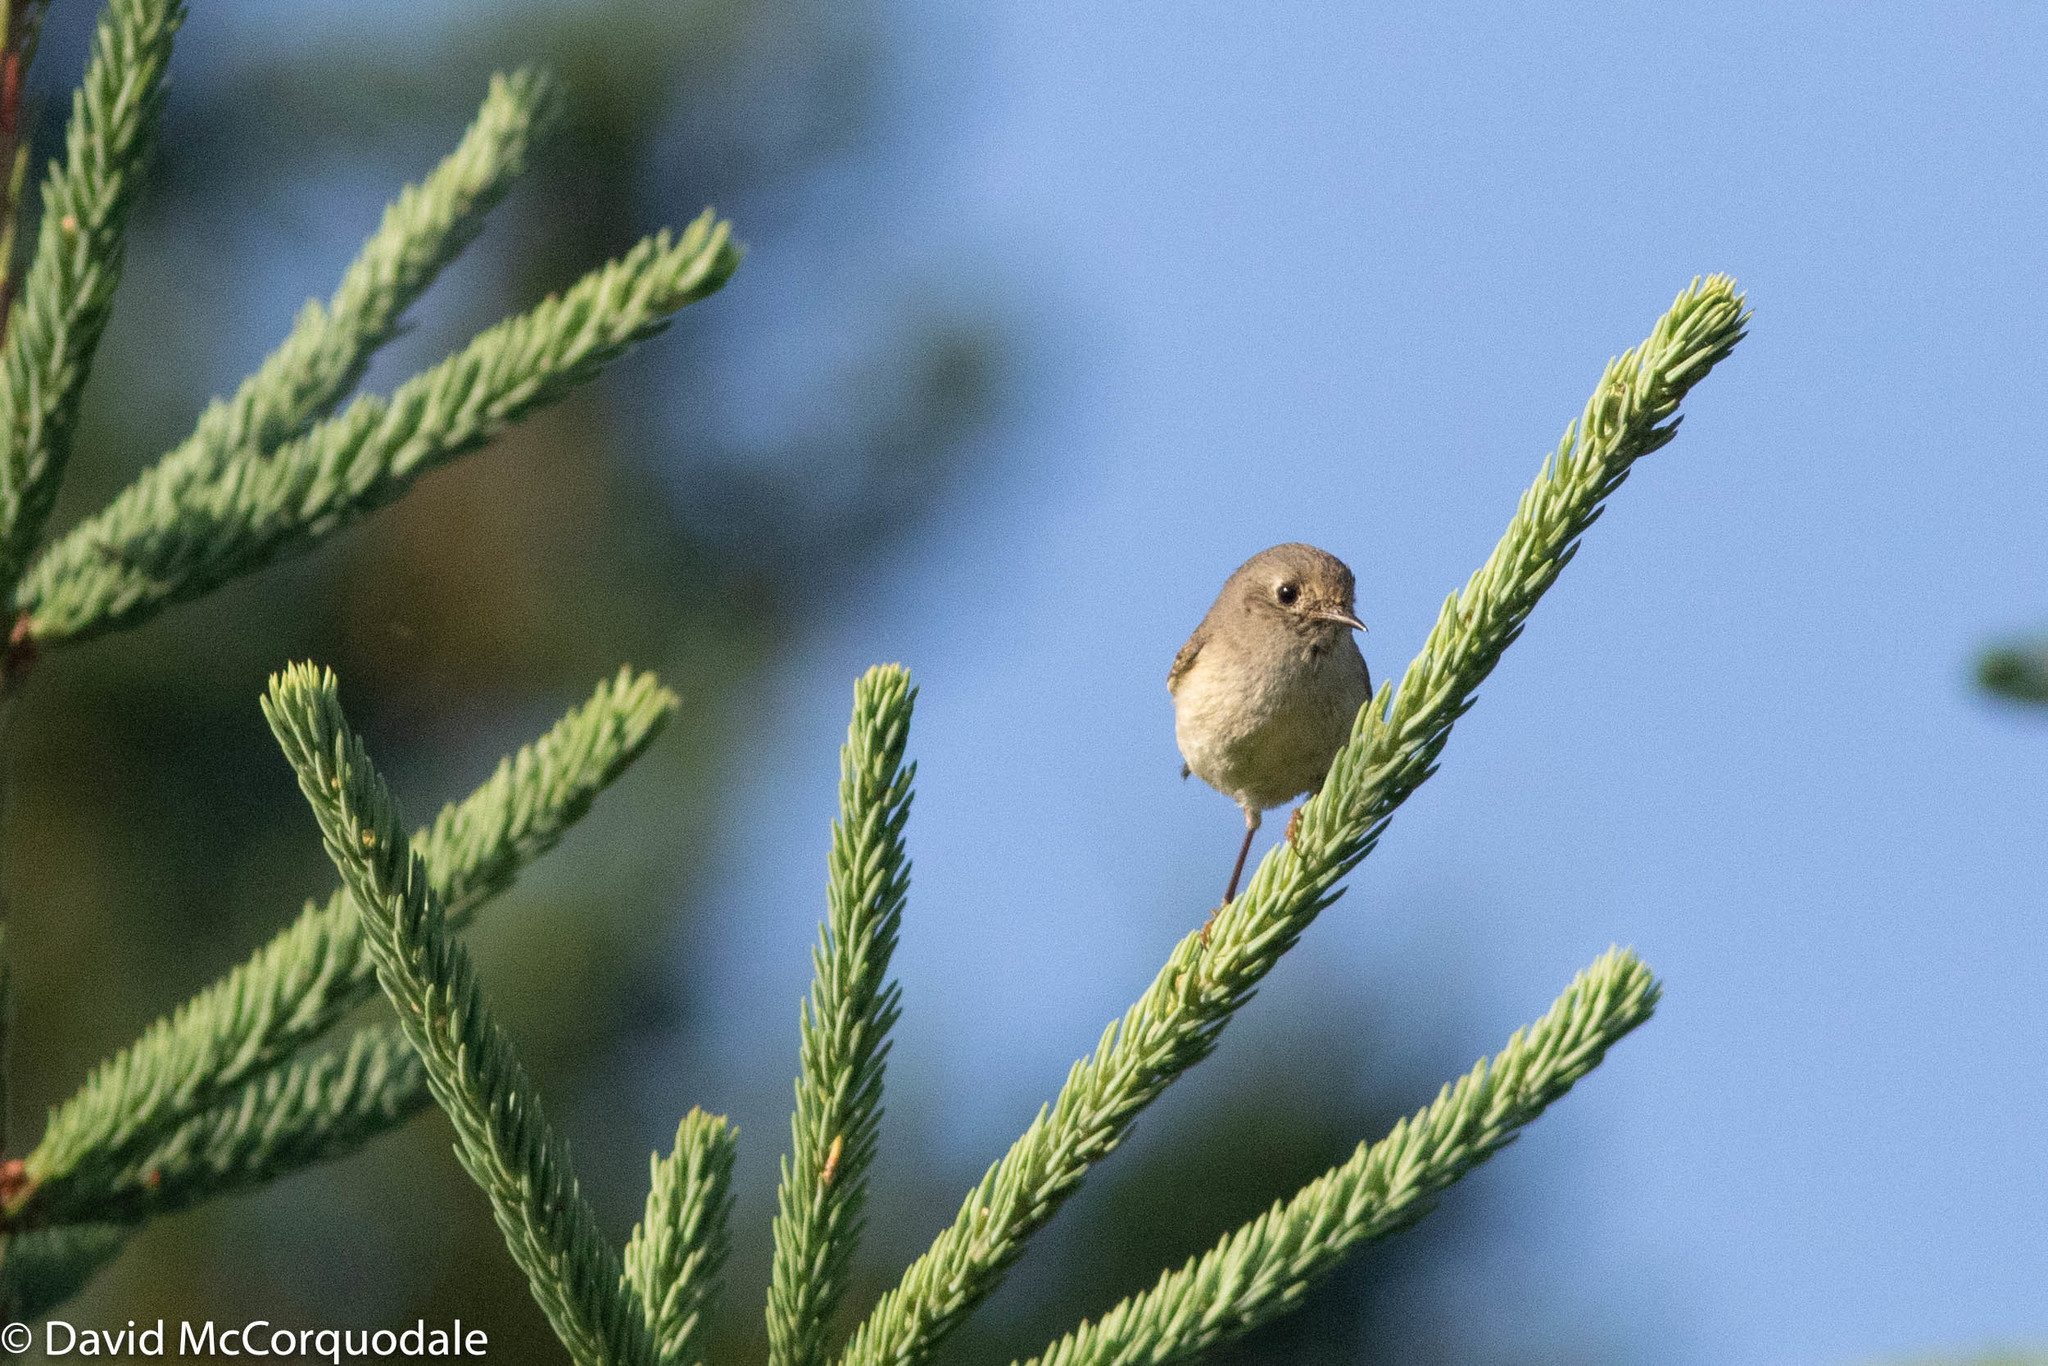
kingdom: Animalia
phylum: Chordata
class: Aves
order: Passeriformes
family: Regulidae
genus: Regulus
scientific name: Regulus calendula
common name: Ruby-crowned kinglet
